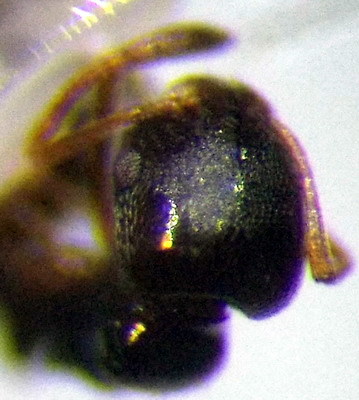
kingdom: Animalia
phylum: Arthropoda
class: Insecta
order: Hymenoptera
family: Formicidae
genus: Cardiocondyla
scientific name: Cardiocondyla stambuloffii
